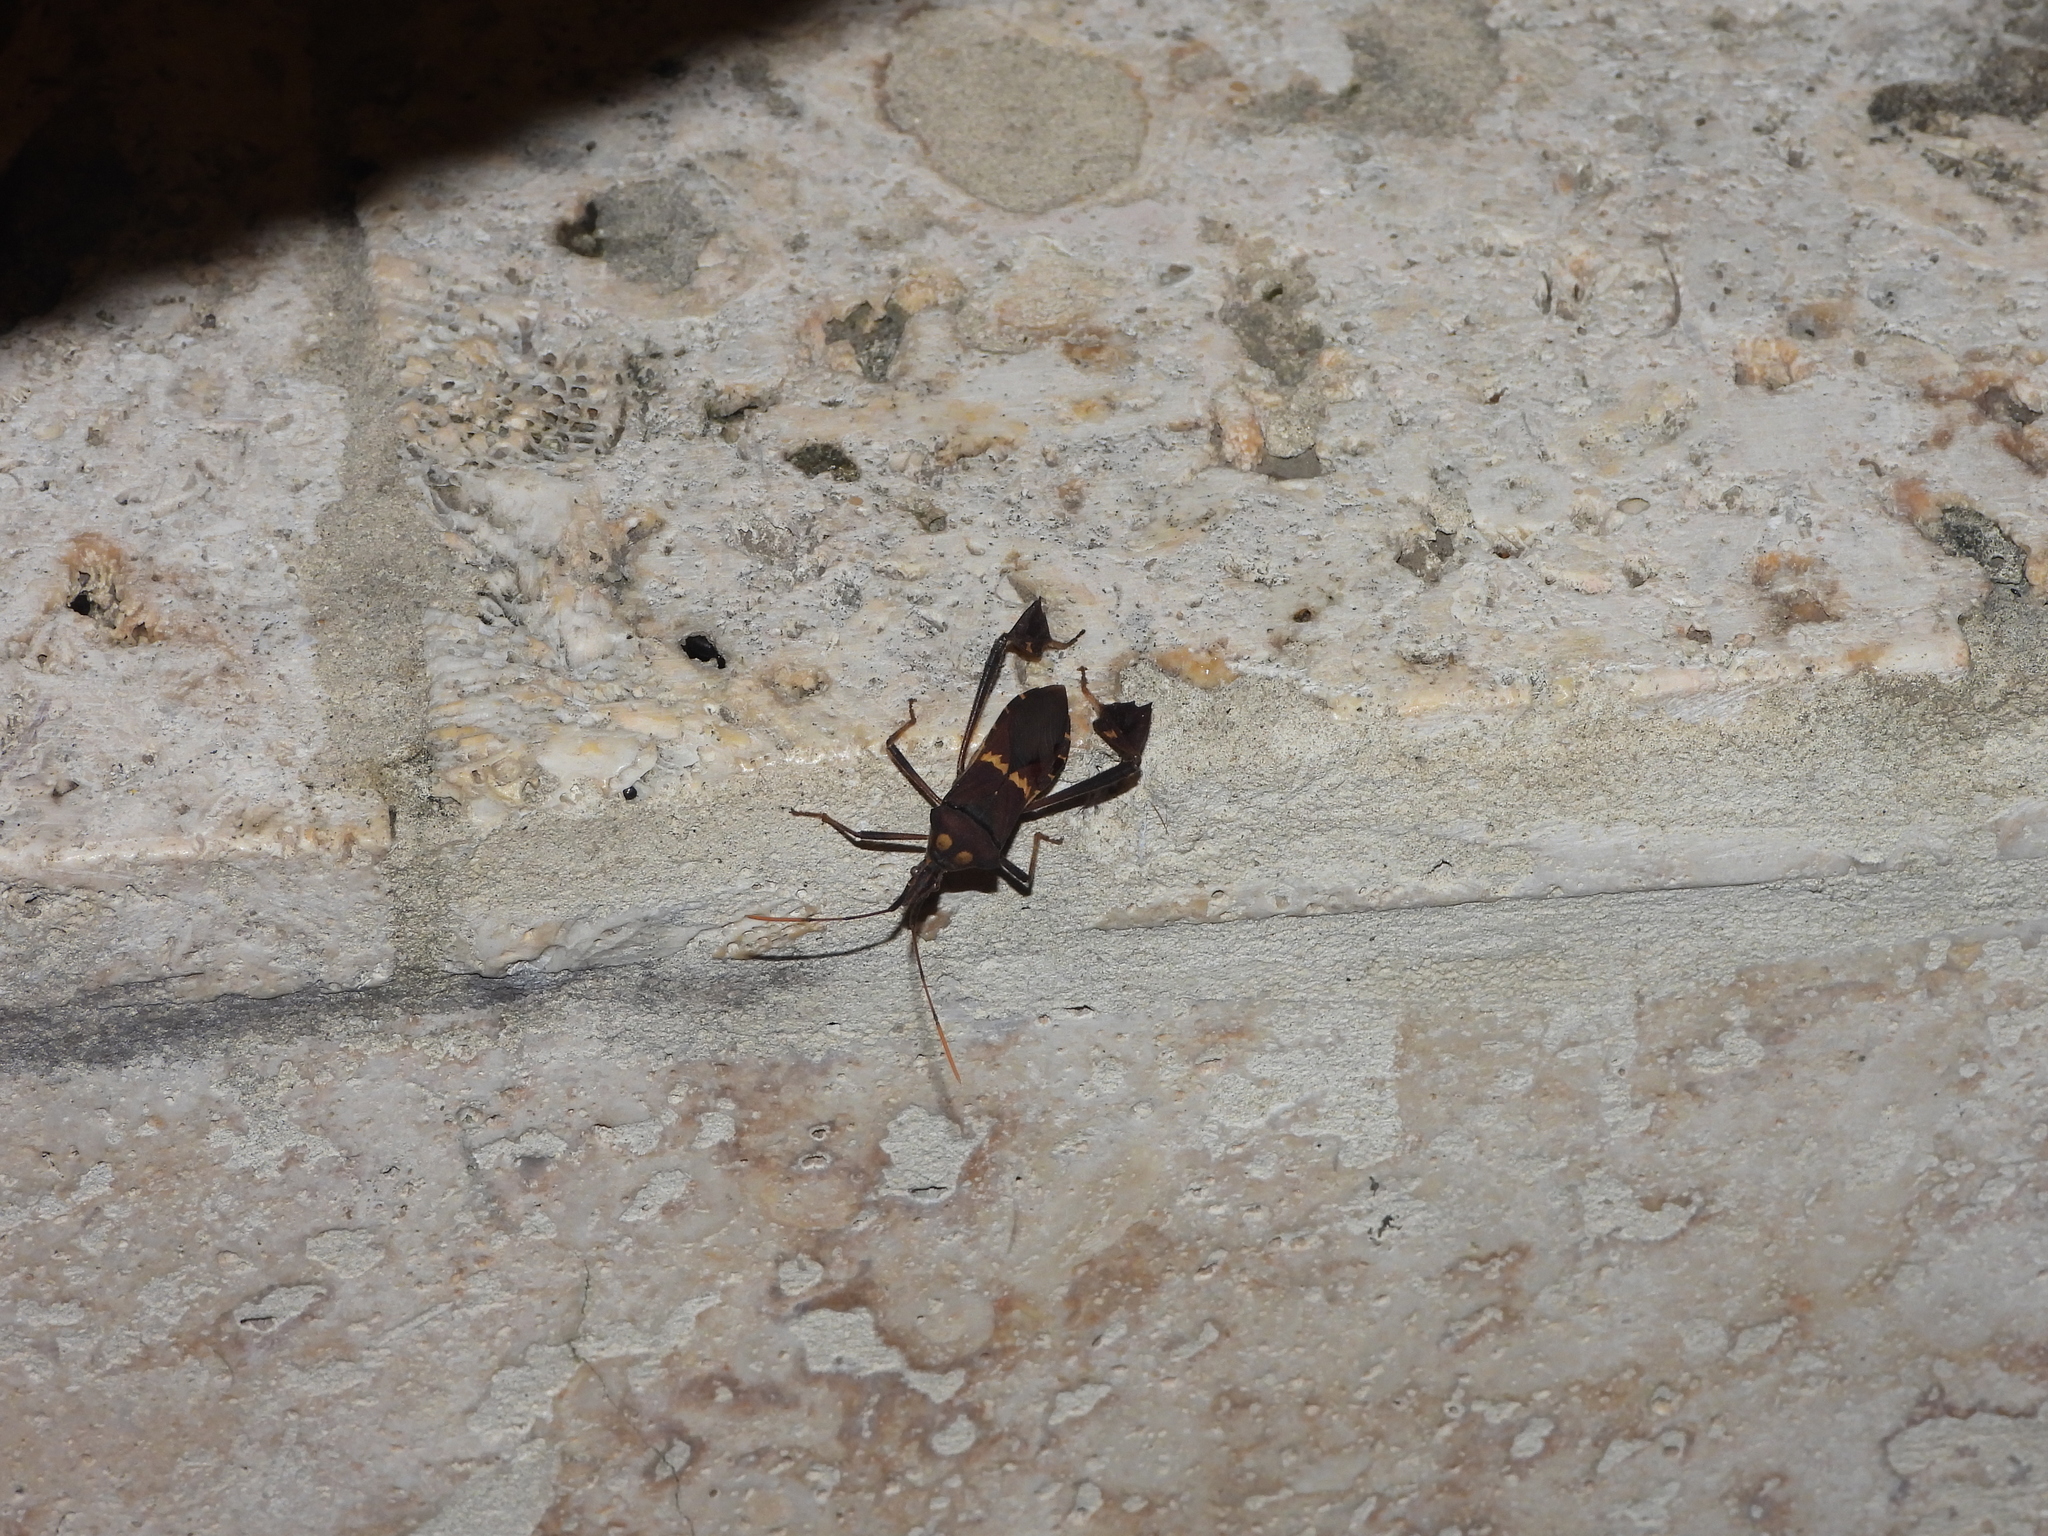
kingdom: Animalia
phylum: Arthropoda
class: Insecta
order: Hemiptera
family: Coreidae
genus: Leptoglossus
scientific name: Leptoglossus zonatus
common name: Large-legged bug
